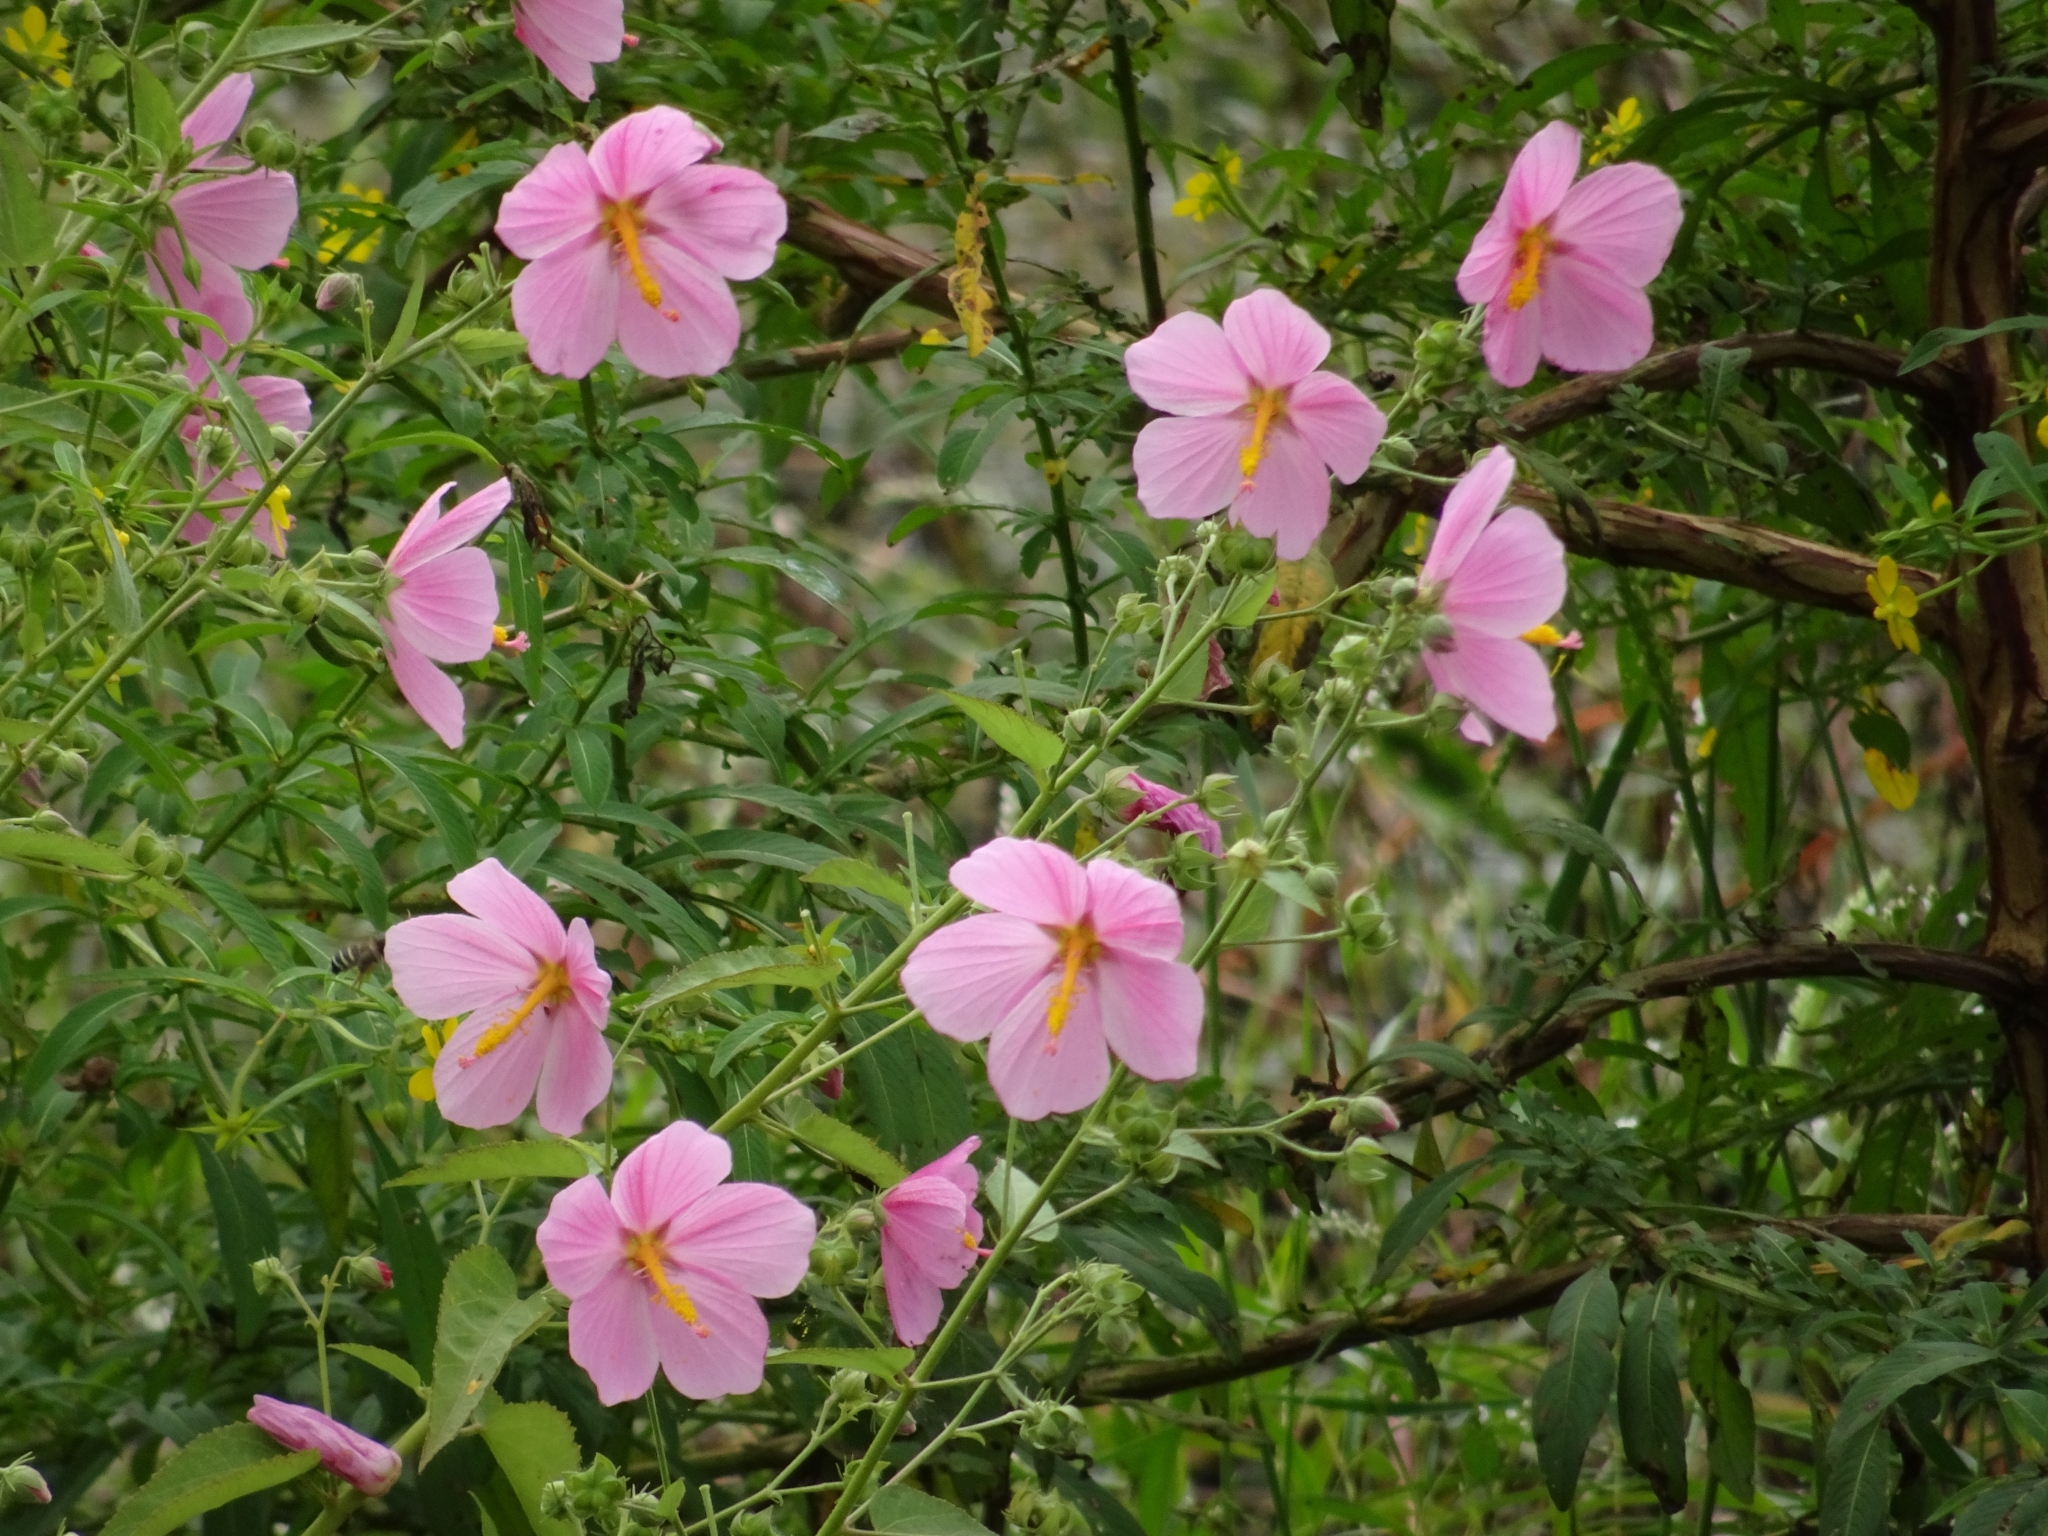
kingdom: Plantae
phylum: Tracheophyta
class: Magnoliopsida
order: Malvales
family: Malvaceae
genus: Kosteletzkya
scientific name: Kosteletzkya pentacarpos
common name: Virginia saltmarsh mallow
